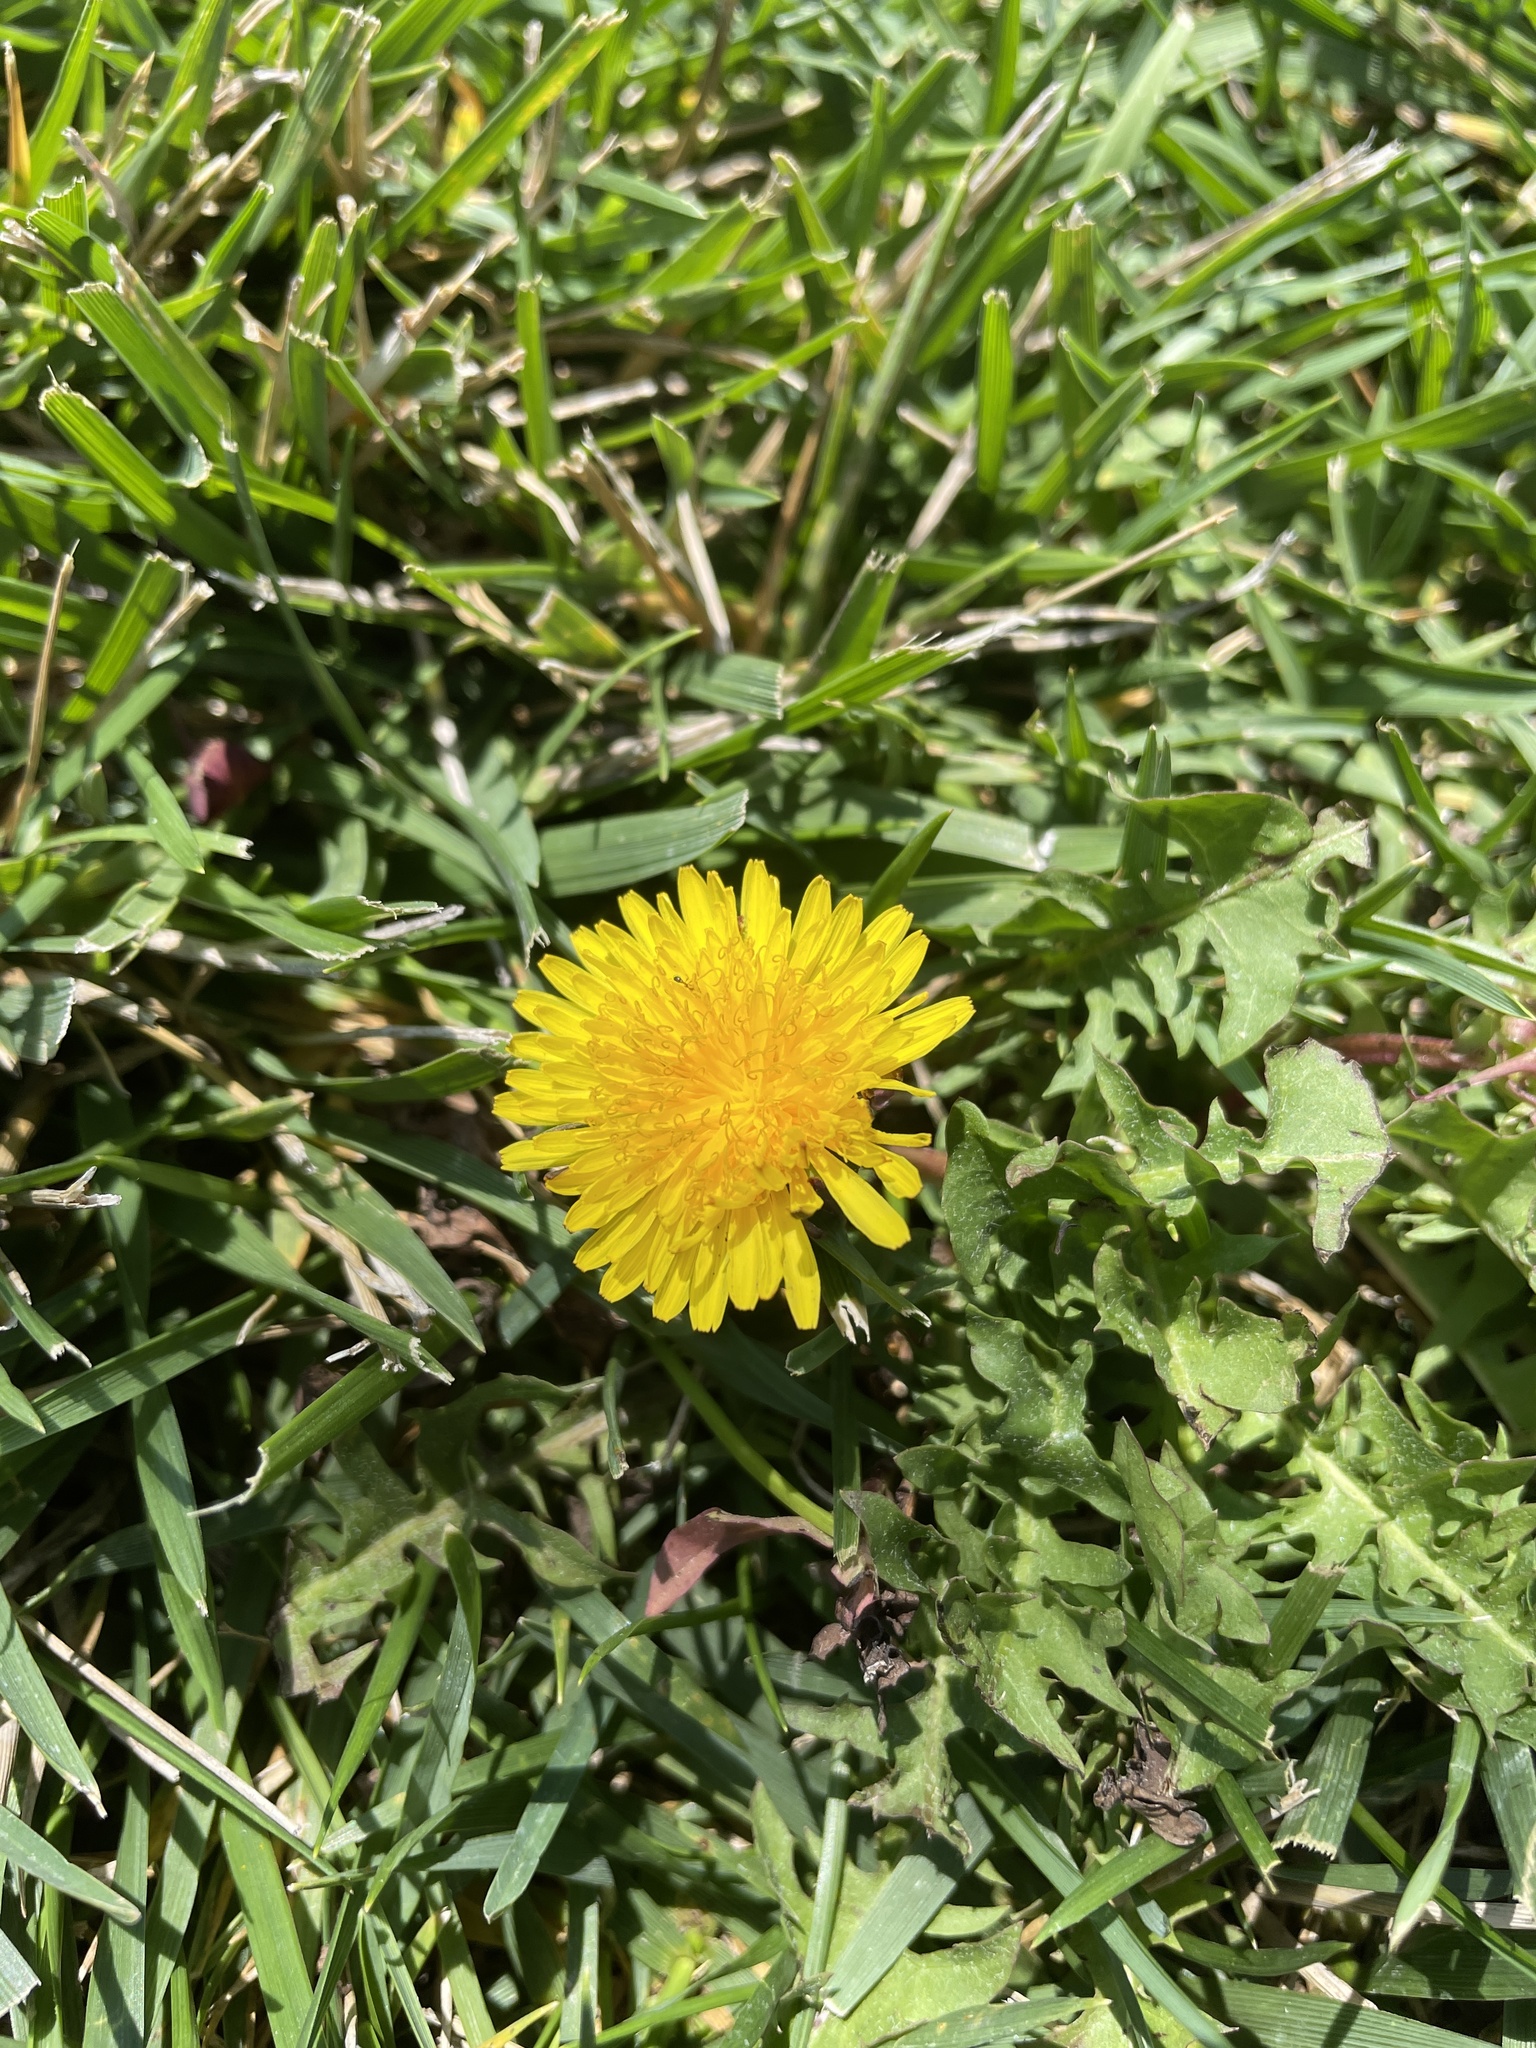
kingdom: Plantae
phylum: Tracheophyta
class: Magnoliopsida
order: Asterales
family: Asteraceae
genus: Taraxacum
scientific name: Taraxacum
